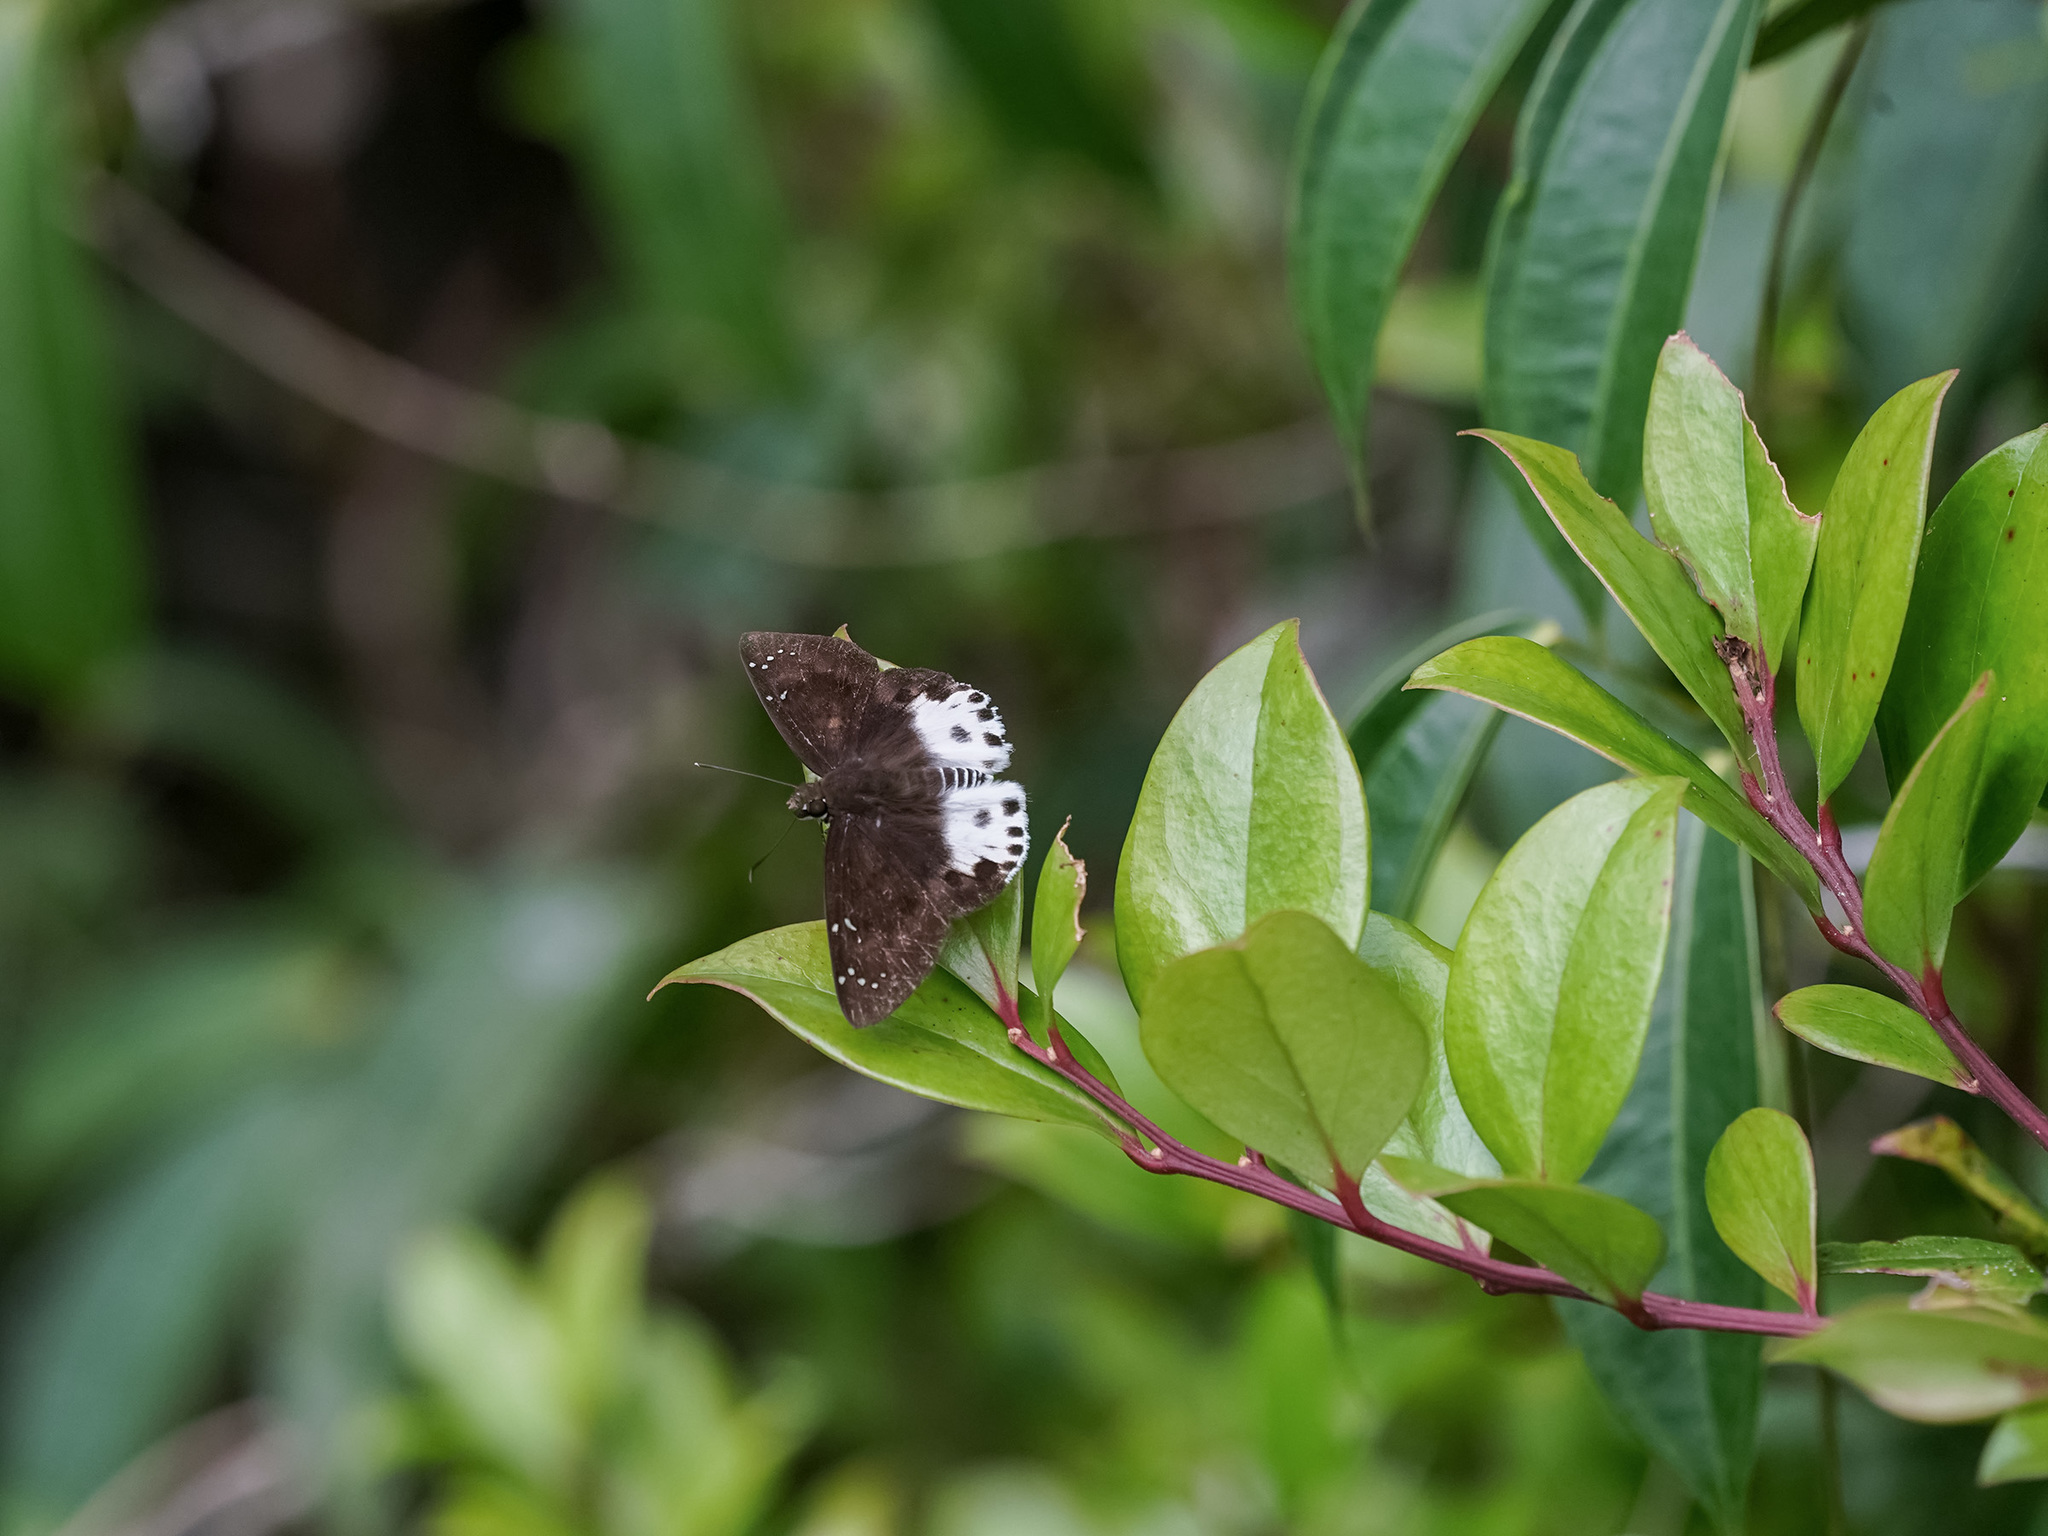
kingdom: Animalia
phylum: Arthropoda
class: Insecta
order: Lepidoptera
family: Hesperiidae
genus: Tagiades
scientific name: Tagiades cohaerens
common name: White-striped snow flat
